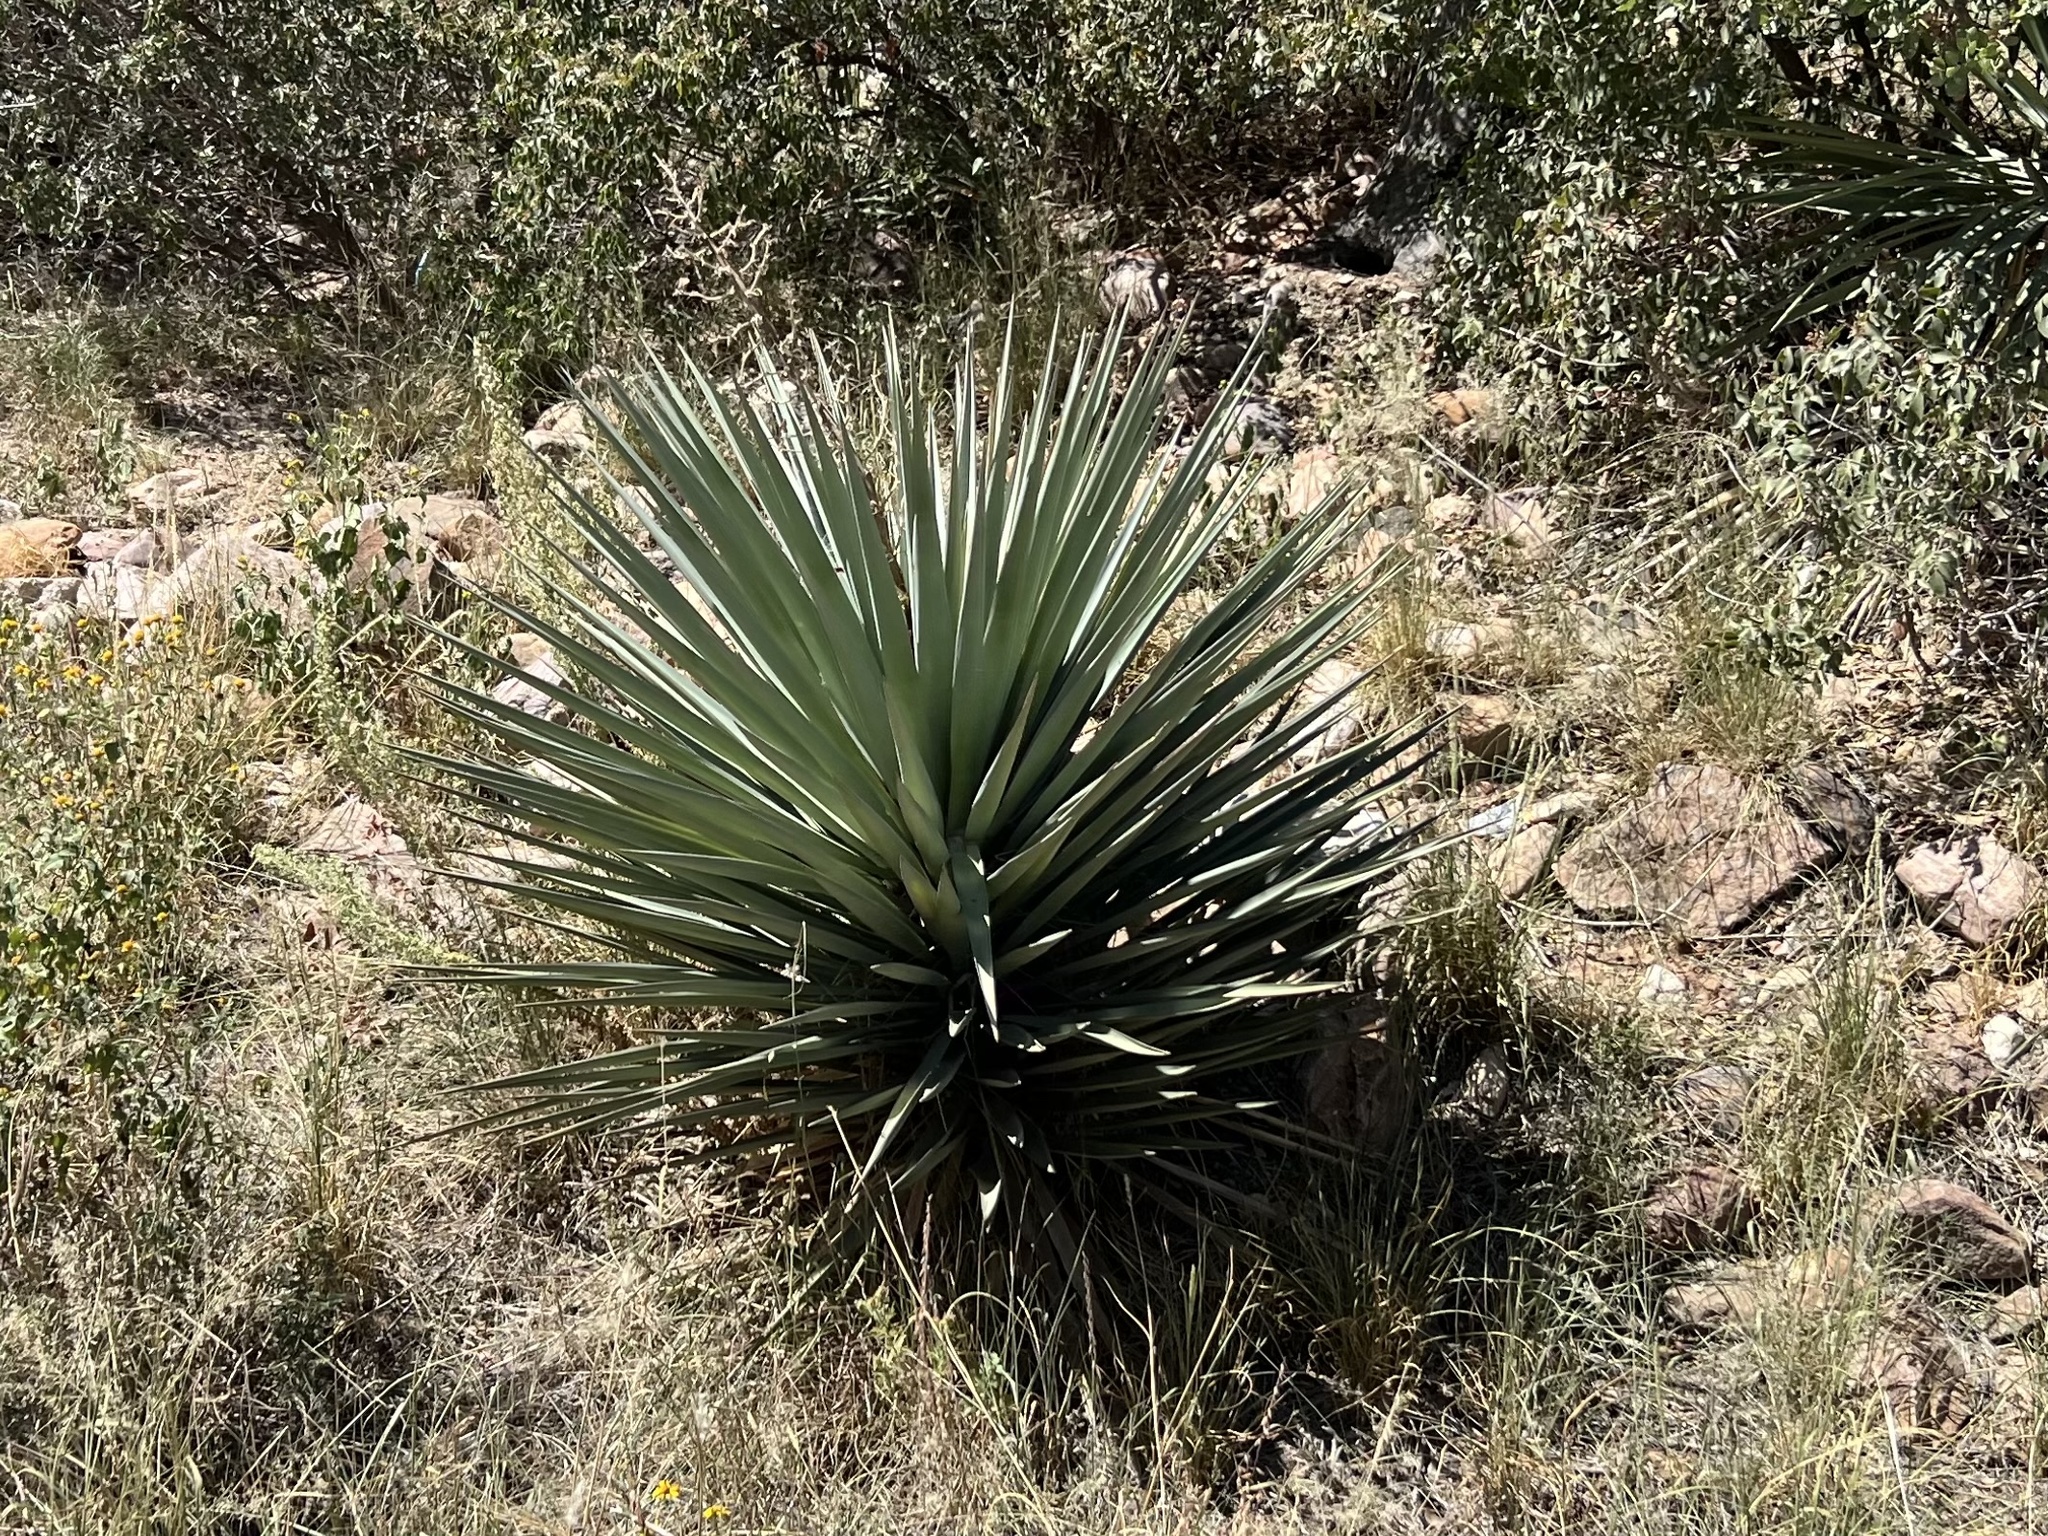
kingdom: Plantae
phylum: Tracheophyta
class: Liliopsida
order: Asparagales
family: Asparagaceae
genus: Yucca
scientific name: Yucca schottii
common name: Hoary yucca
